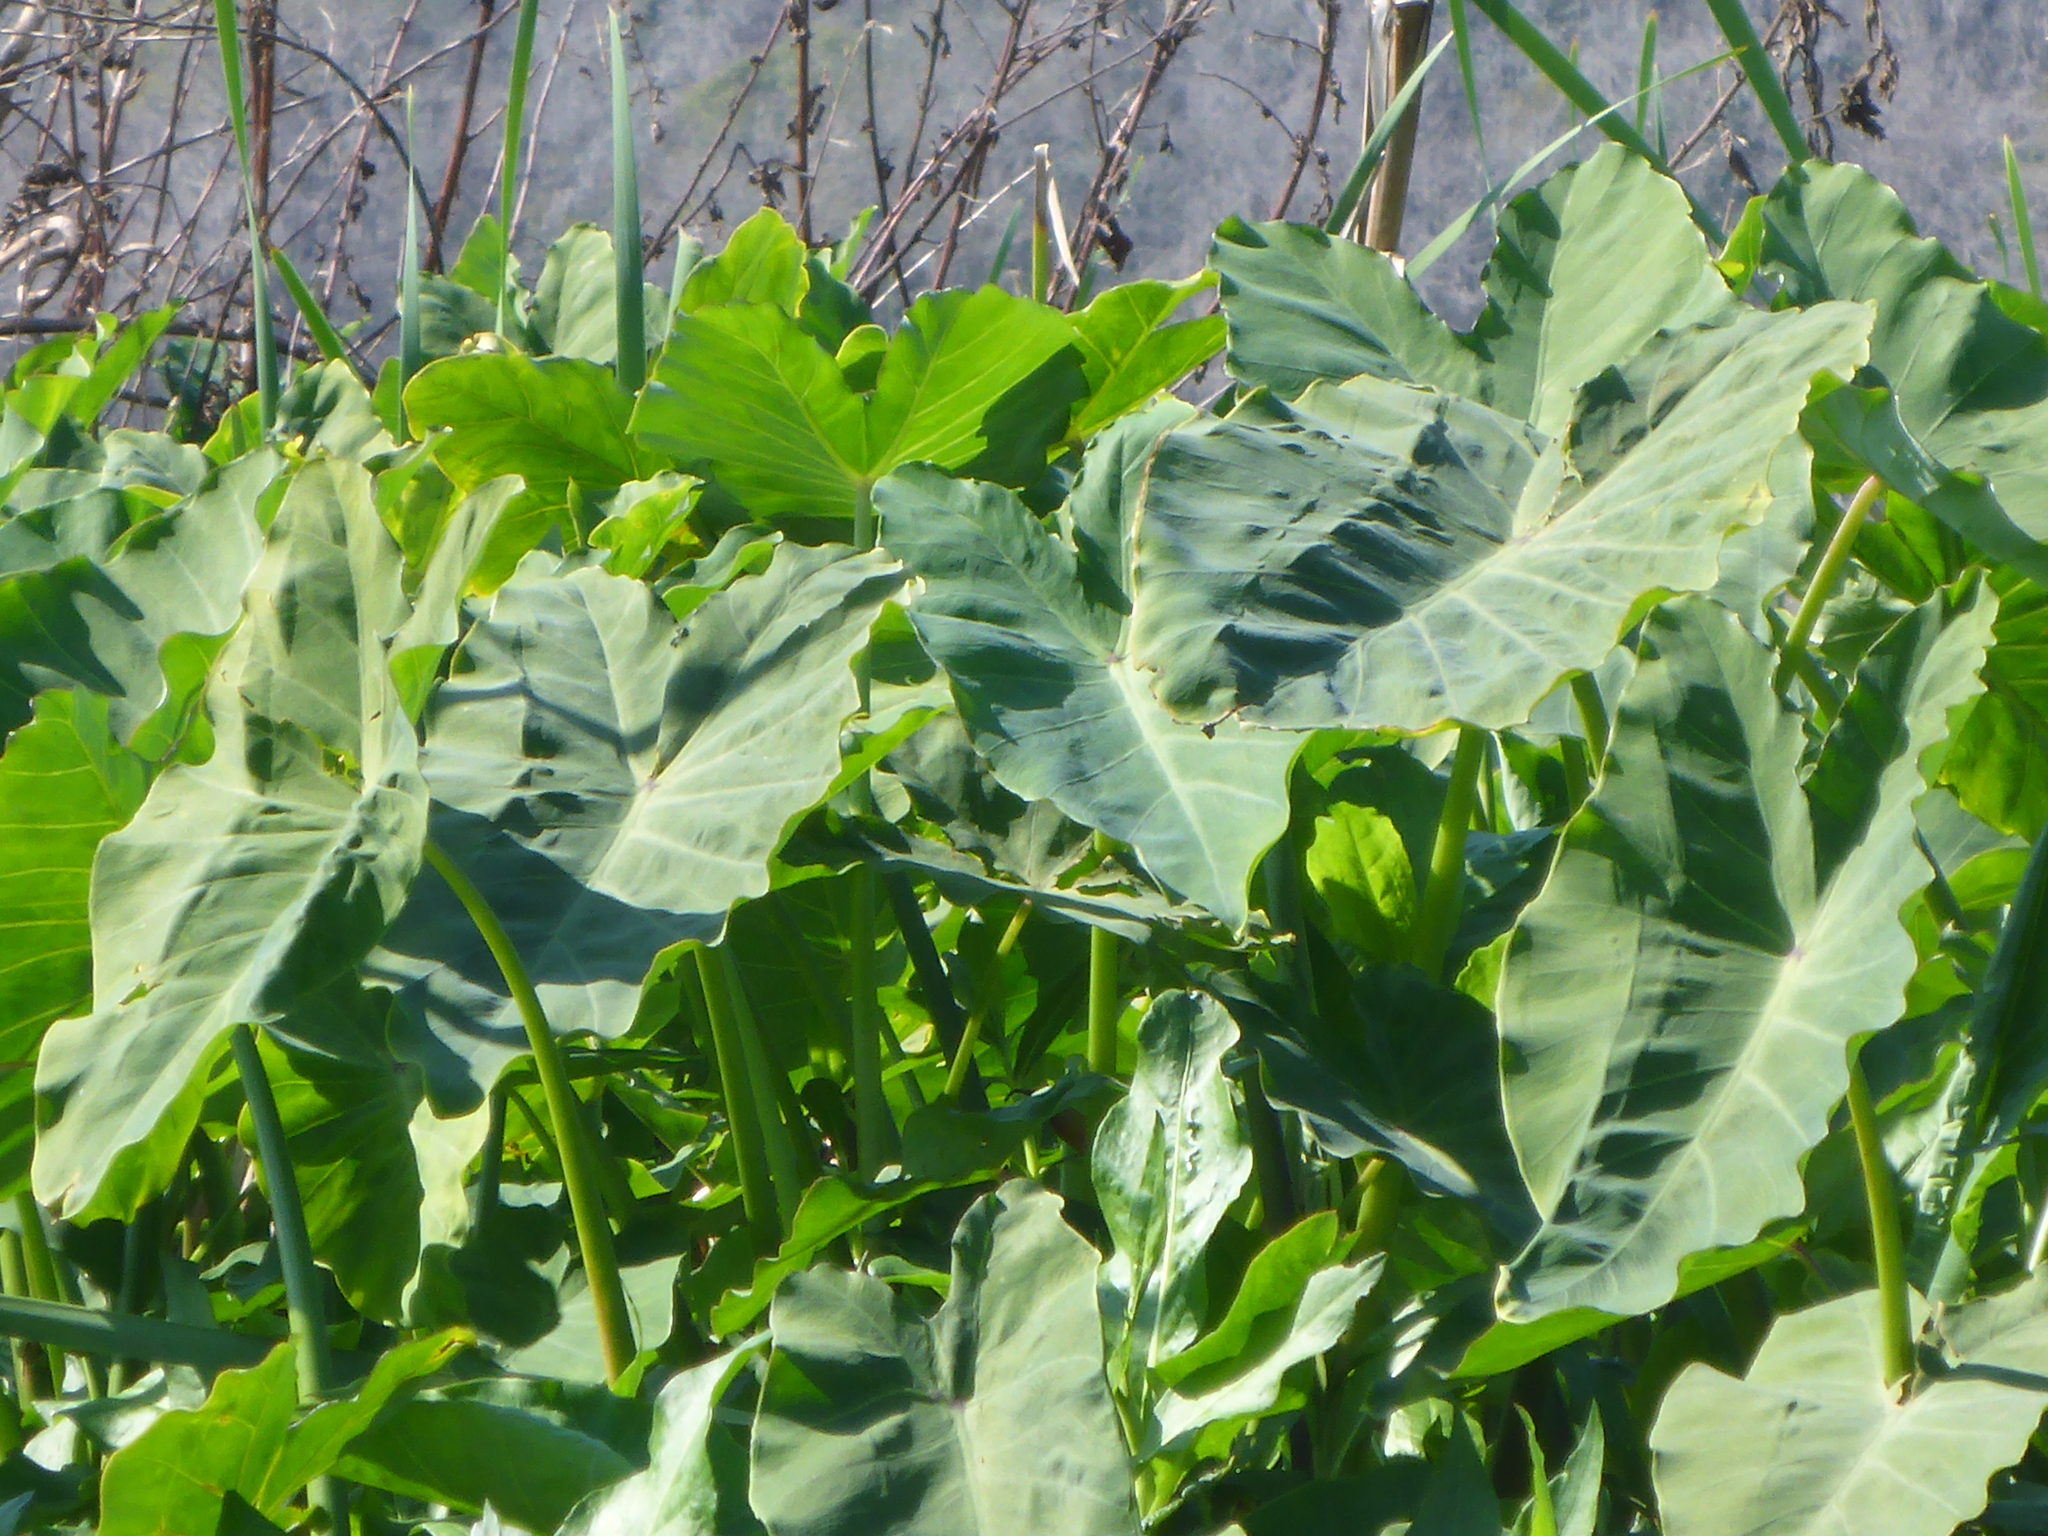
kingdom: Plantae
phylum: Tracheophyta
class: Liliopsida
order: Alismatales
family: Araceae
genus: Colocasia
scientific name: Colocasia esculenta
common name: Taro
